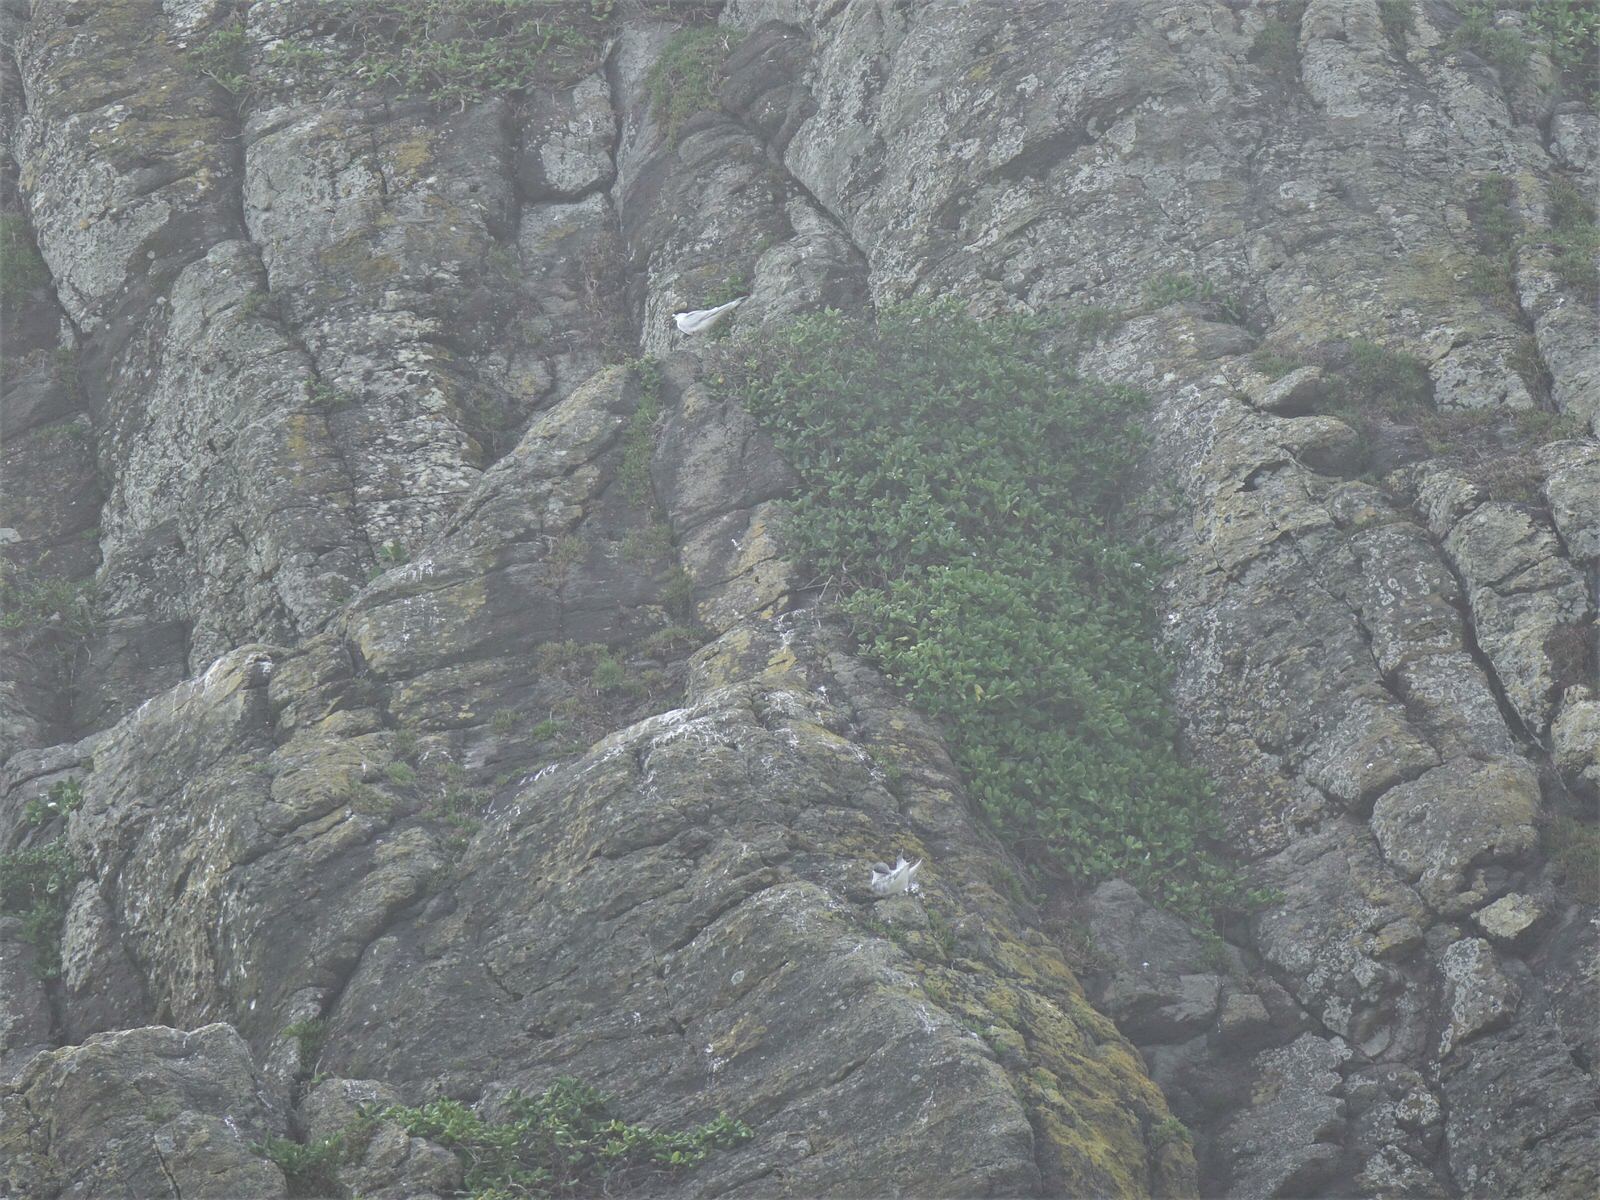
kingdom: Animalia
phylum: Chordata
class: Aves
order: Charadriiformes
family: Laridae
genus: Sterna
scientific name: Sterna striata
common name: White-fronted tern
